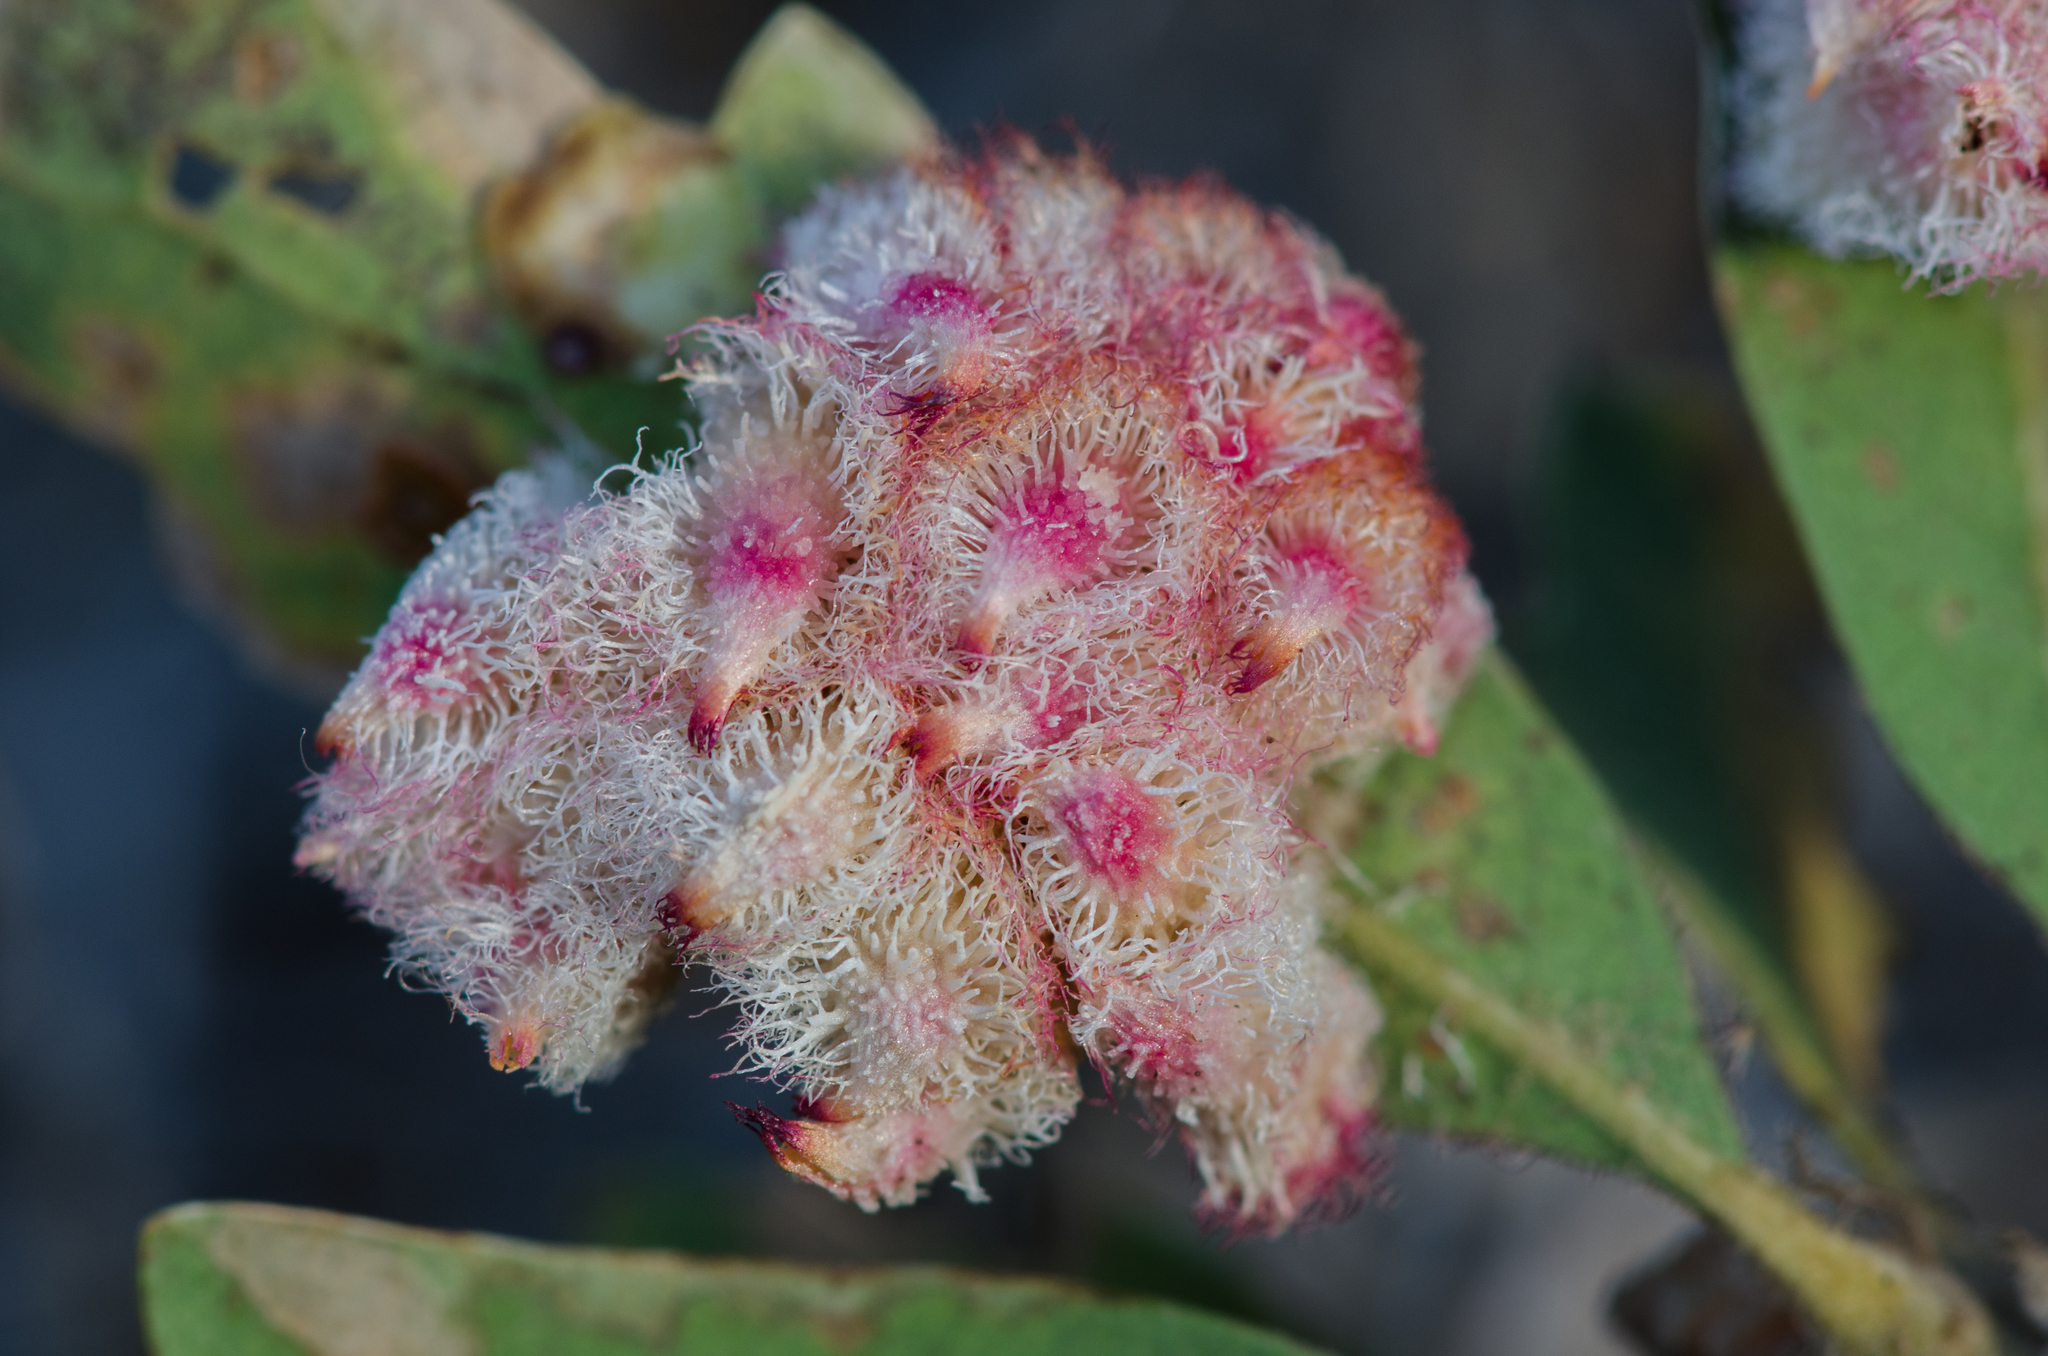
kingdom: Animalia
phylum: Arthropoda
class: Insecta
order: Hymenoptera
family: Cynipidae
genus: Andricus
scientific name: Andricus
